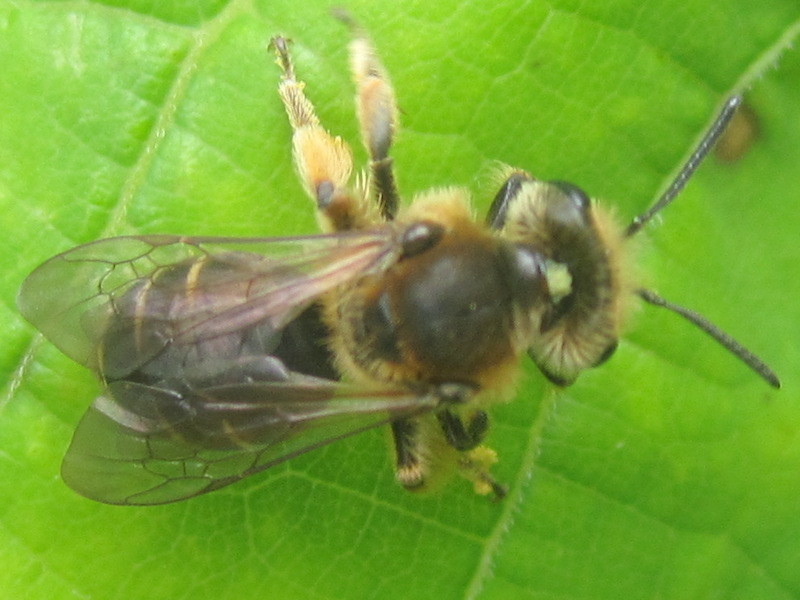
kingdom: Animalia
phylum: Arthropoda
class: Insecta
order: Hymenoptera
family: Andrenidae
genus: Andrena
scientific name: Andrena wilkella
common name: Wilke's mining bee
